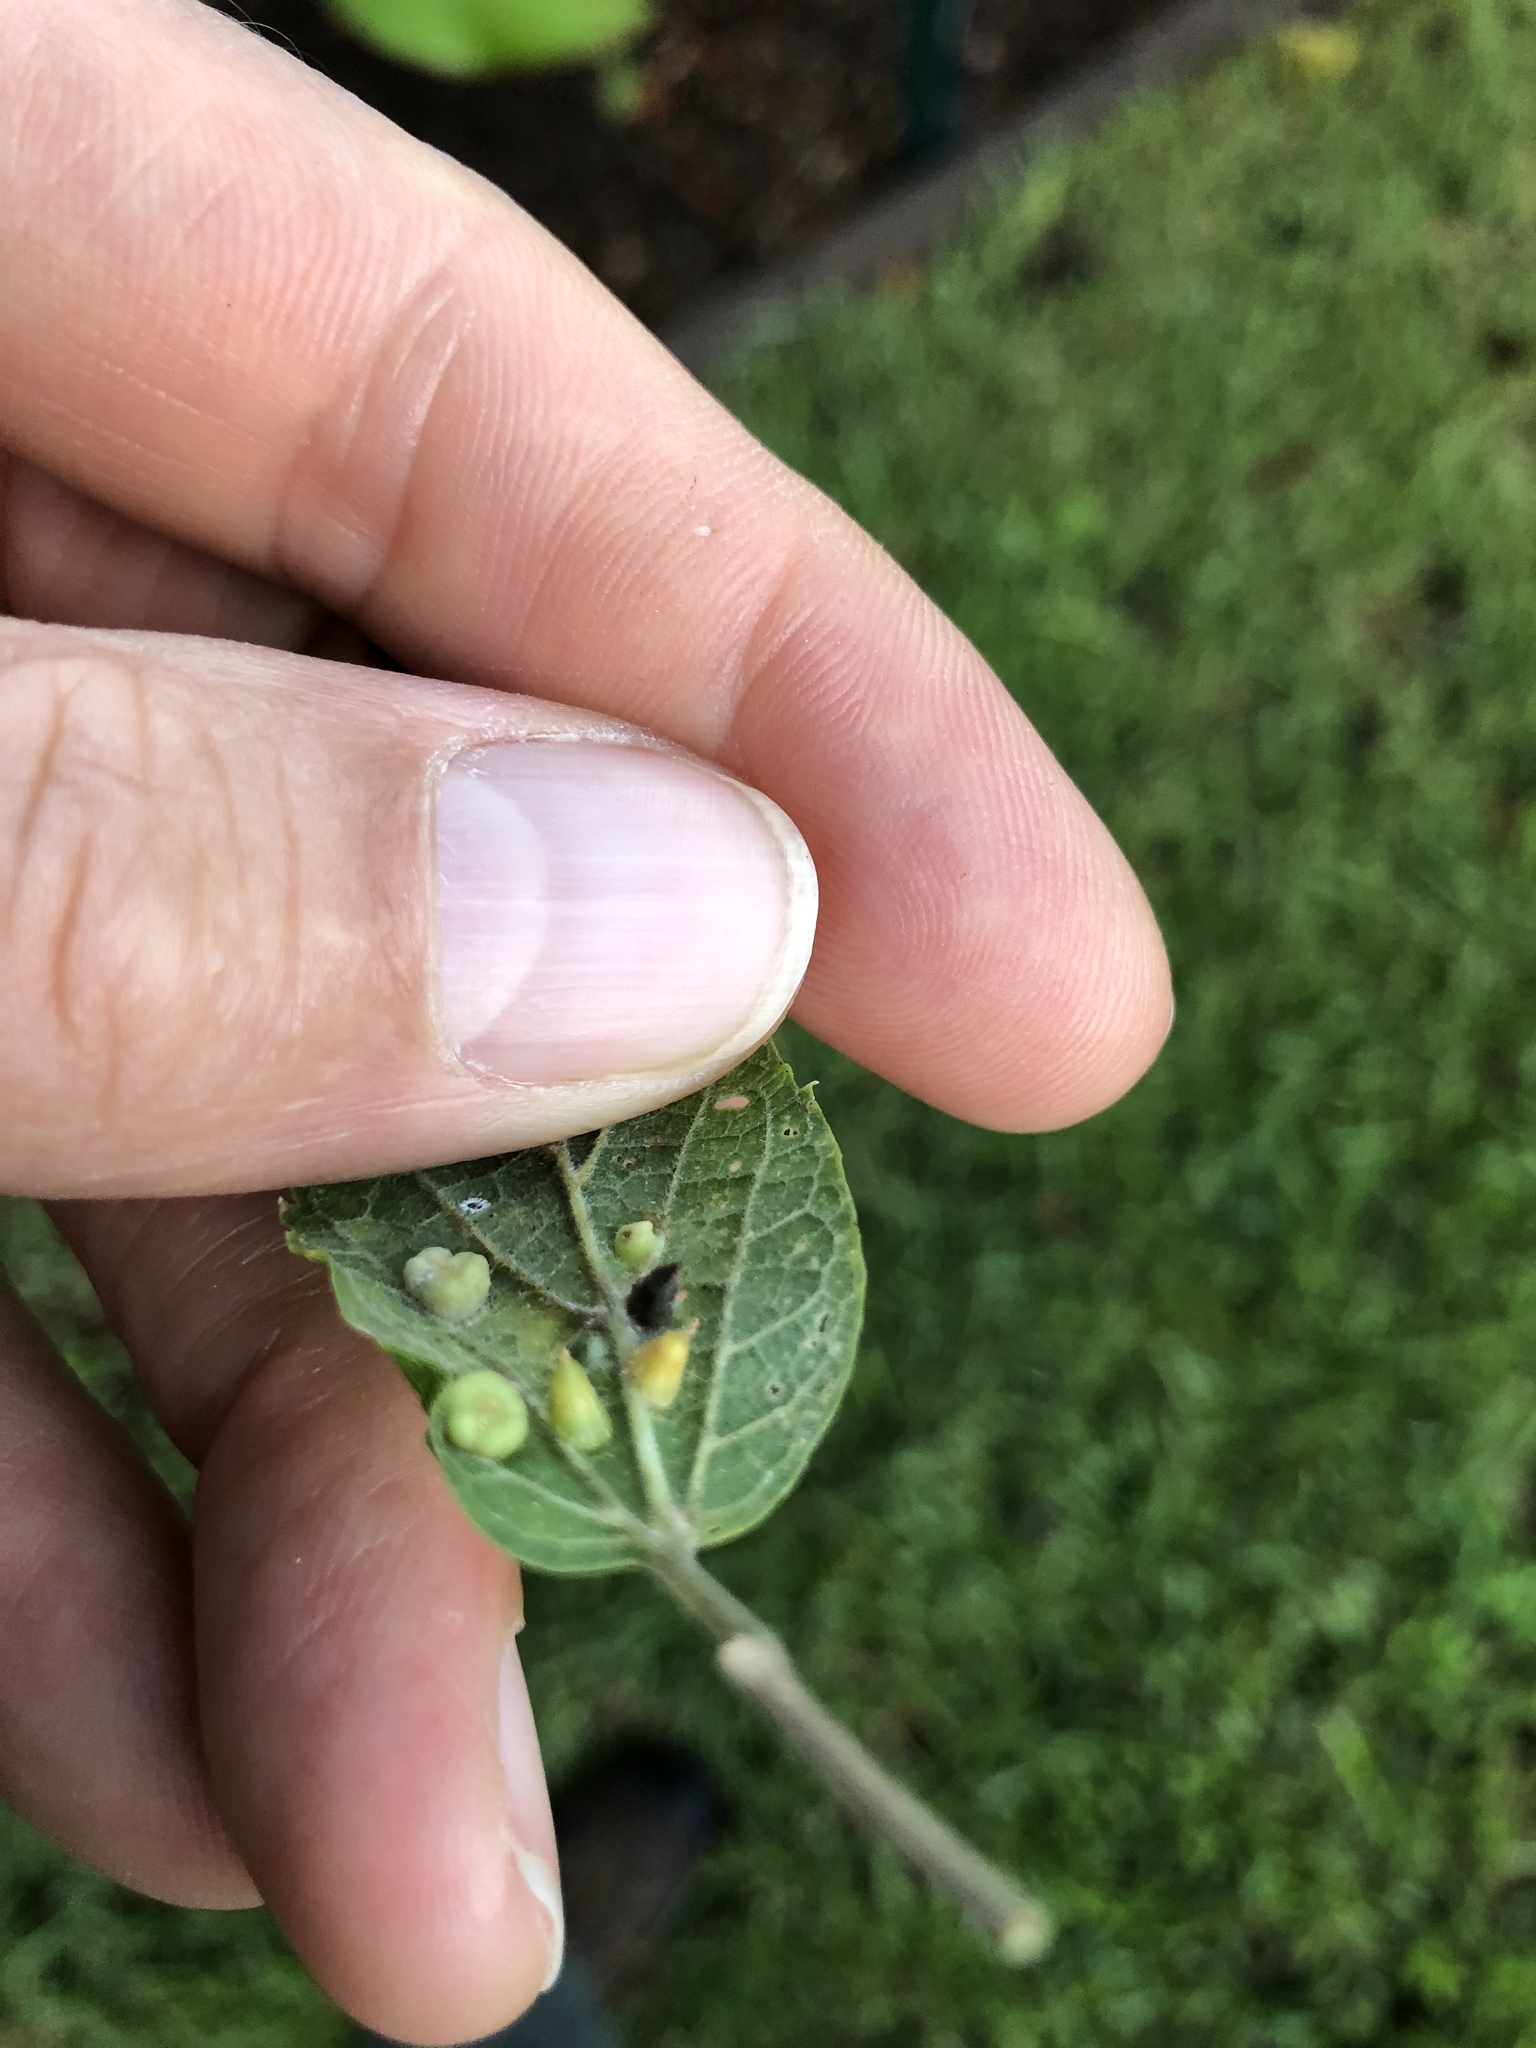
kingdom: Animalia
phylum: Arthropoda
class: Insecta
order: Diptera
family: Cecidomyiidae
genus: Celticecis
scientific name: Celticecis spiniformis
